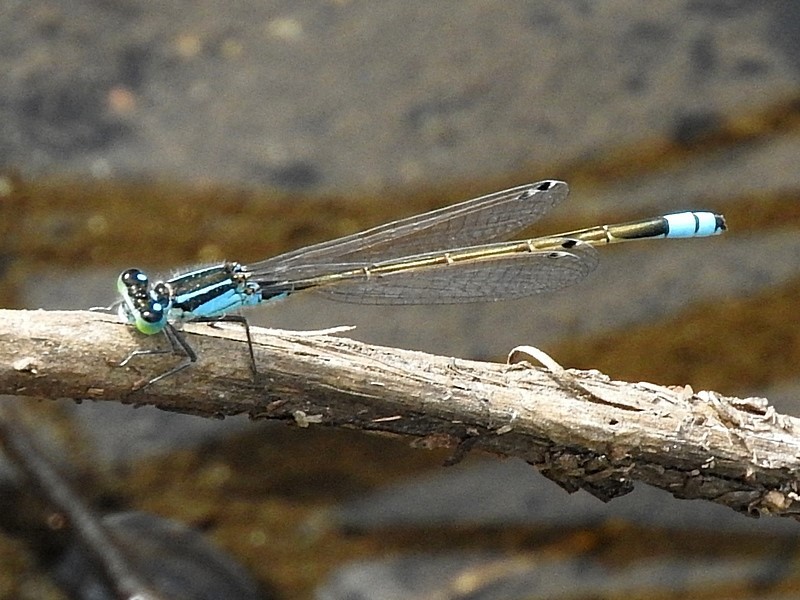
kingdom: Animalia
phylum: Arthropoda
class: Insecta
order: Odonata
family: Coenagrionidae
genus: Ischnura
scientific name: Ischnura heterosticta
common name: Common bluetail
